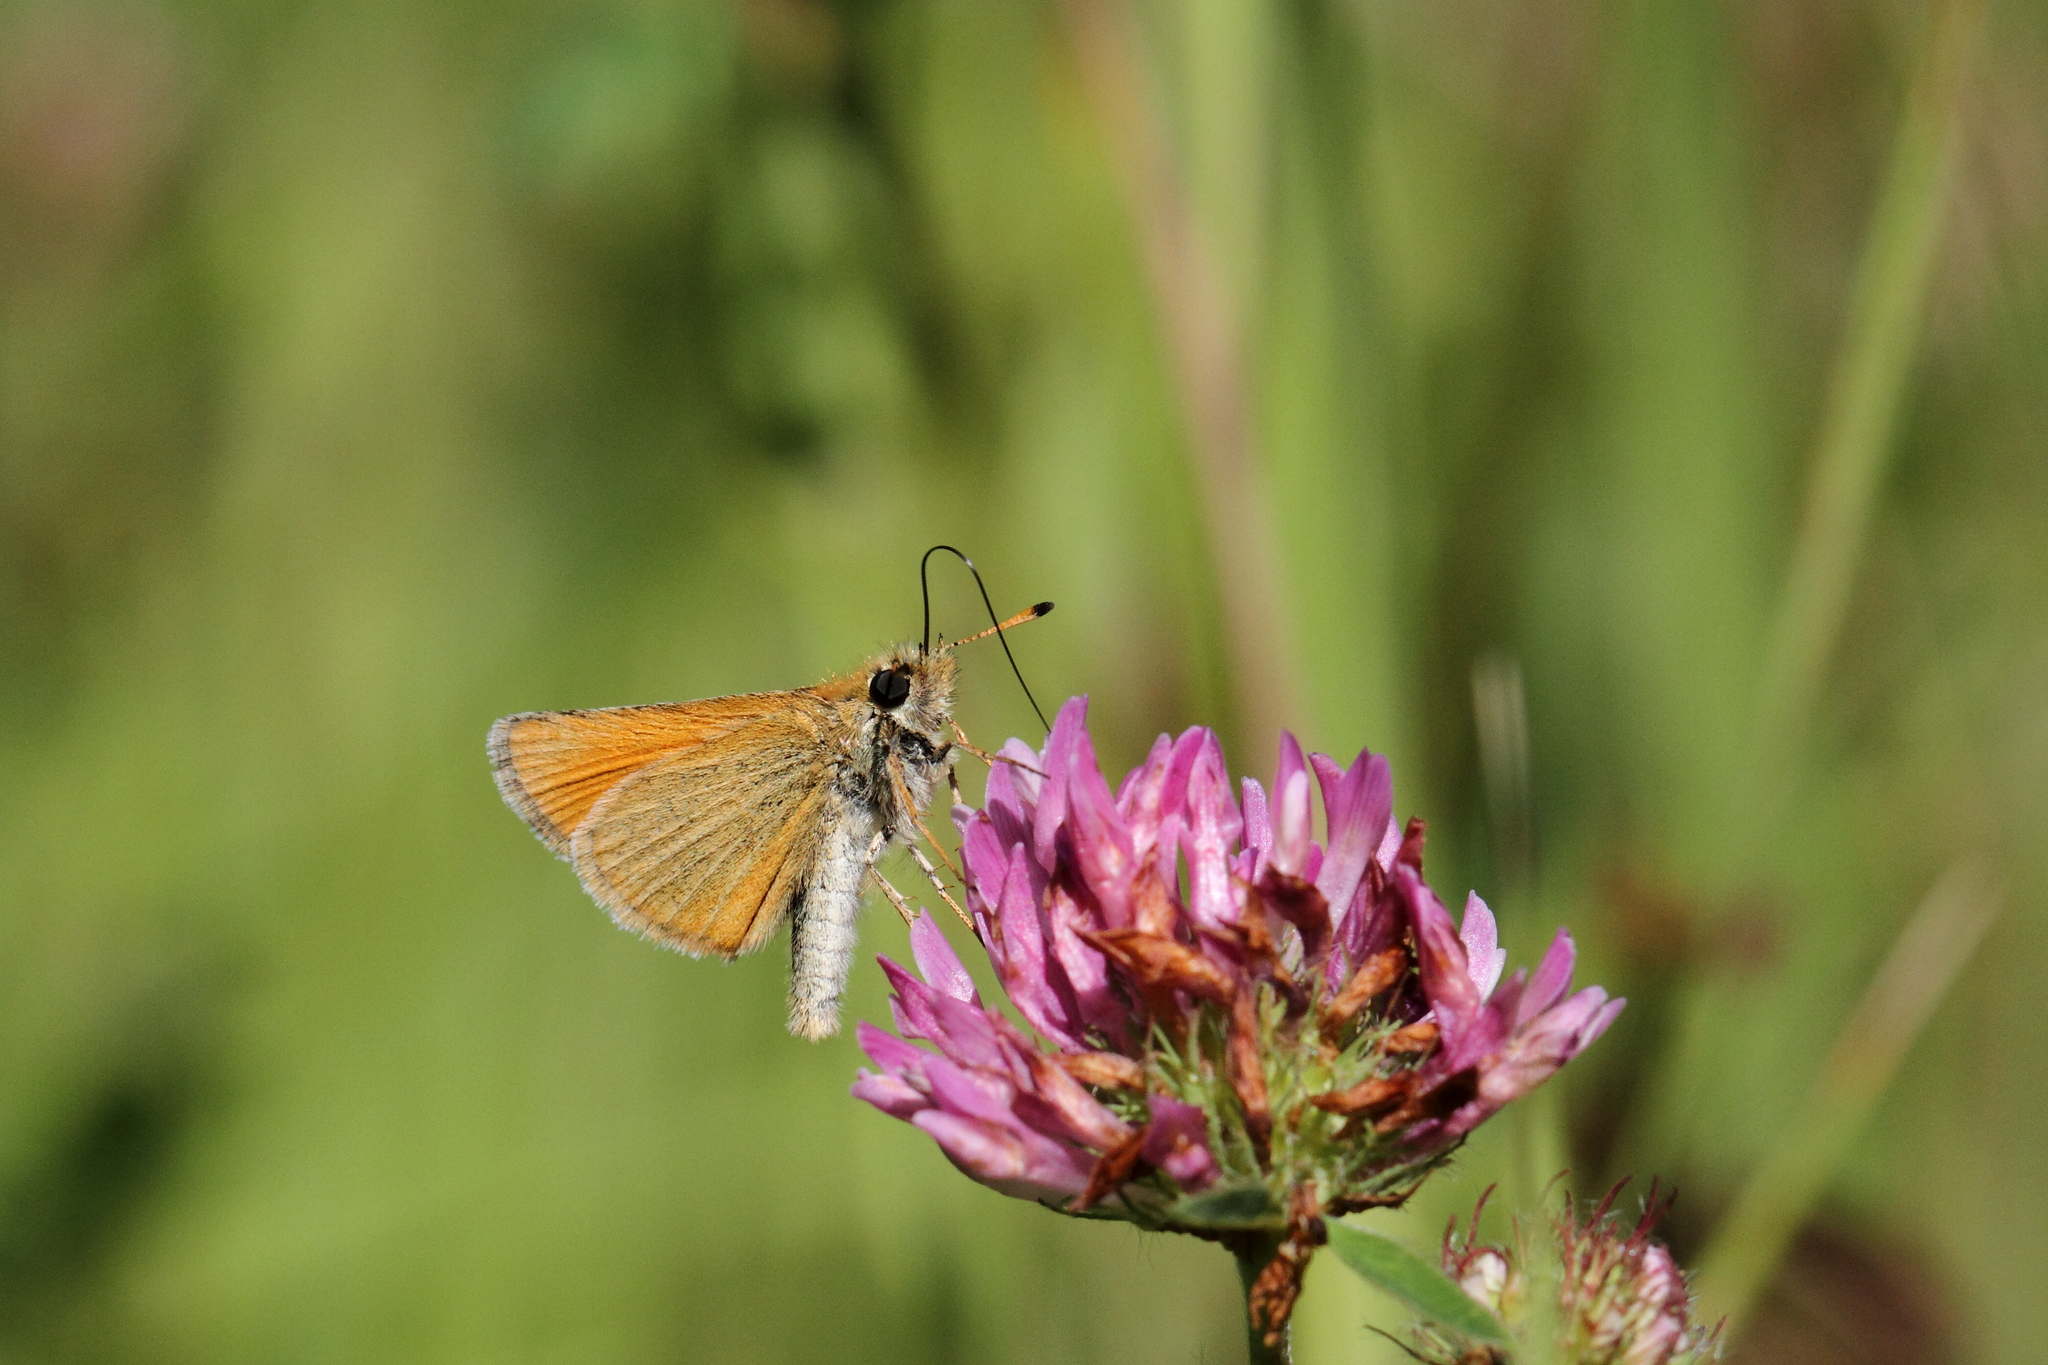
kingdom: Animalia
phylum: Arthropoda
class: Insecta
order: Lepidoptera
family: Hesperiidae
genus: Thymelicus
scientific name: Thymelicus lineola
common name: Essex skipper
